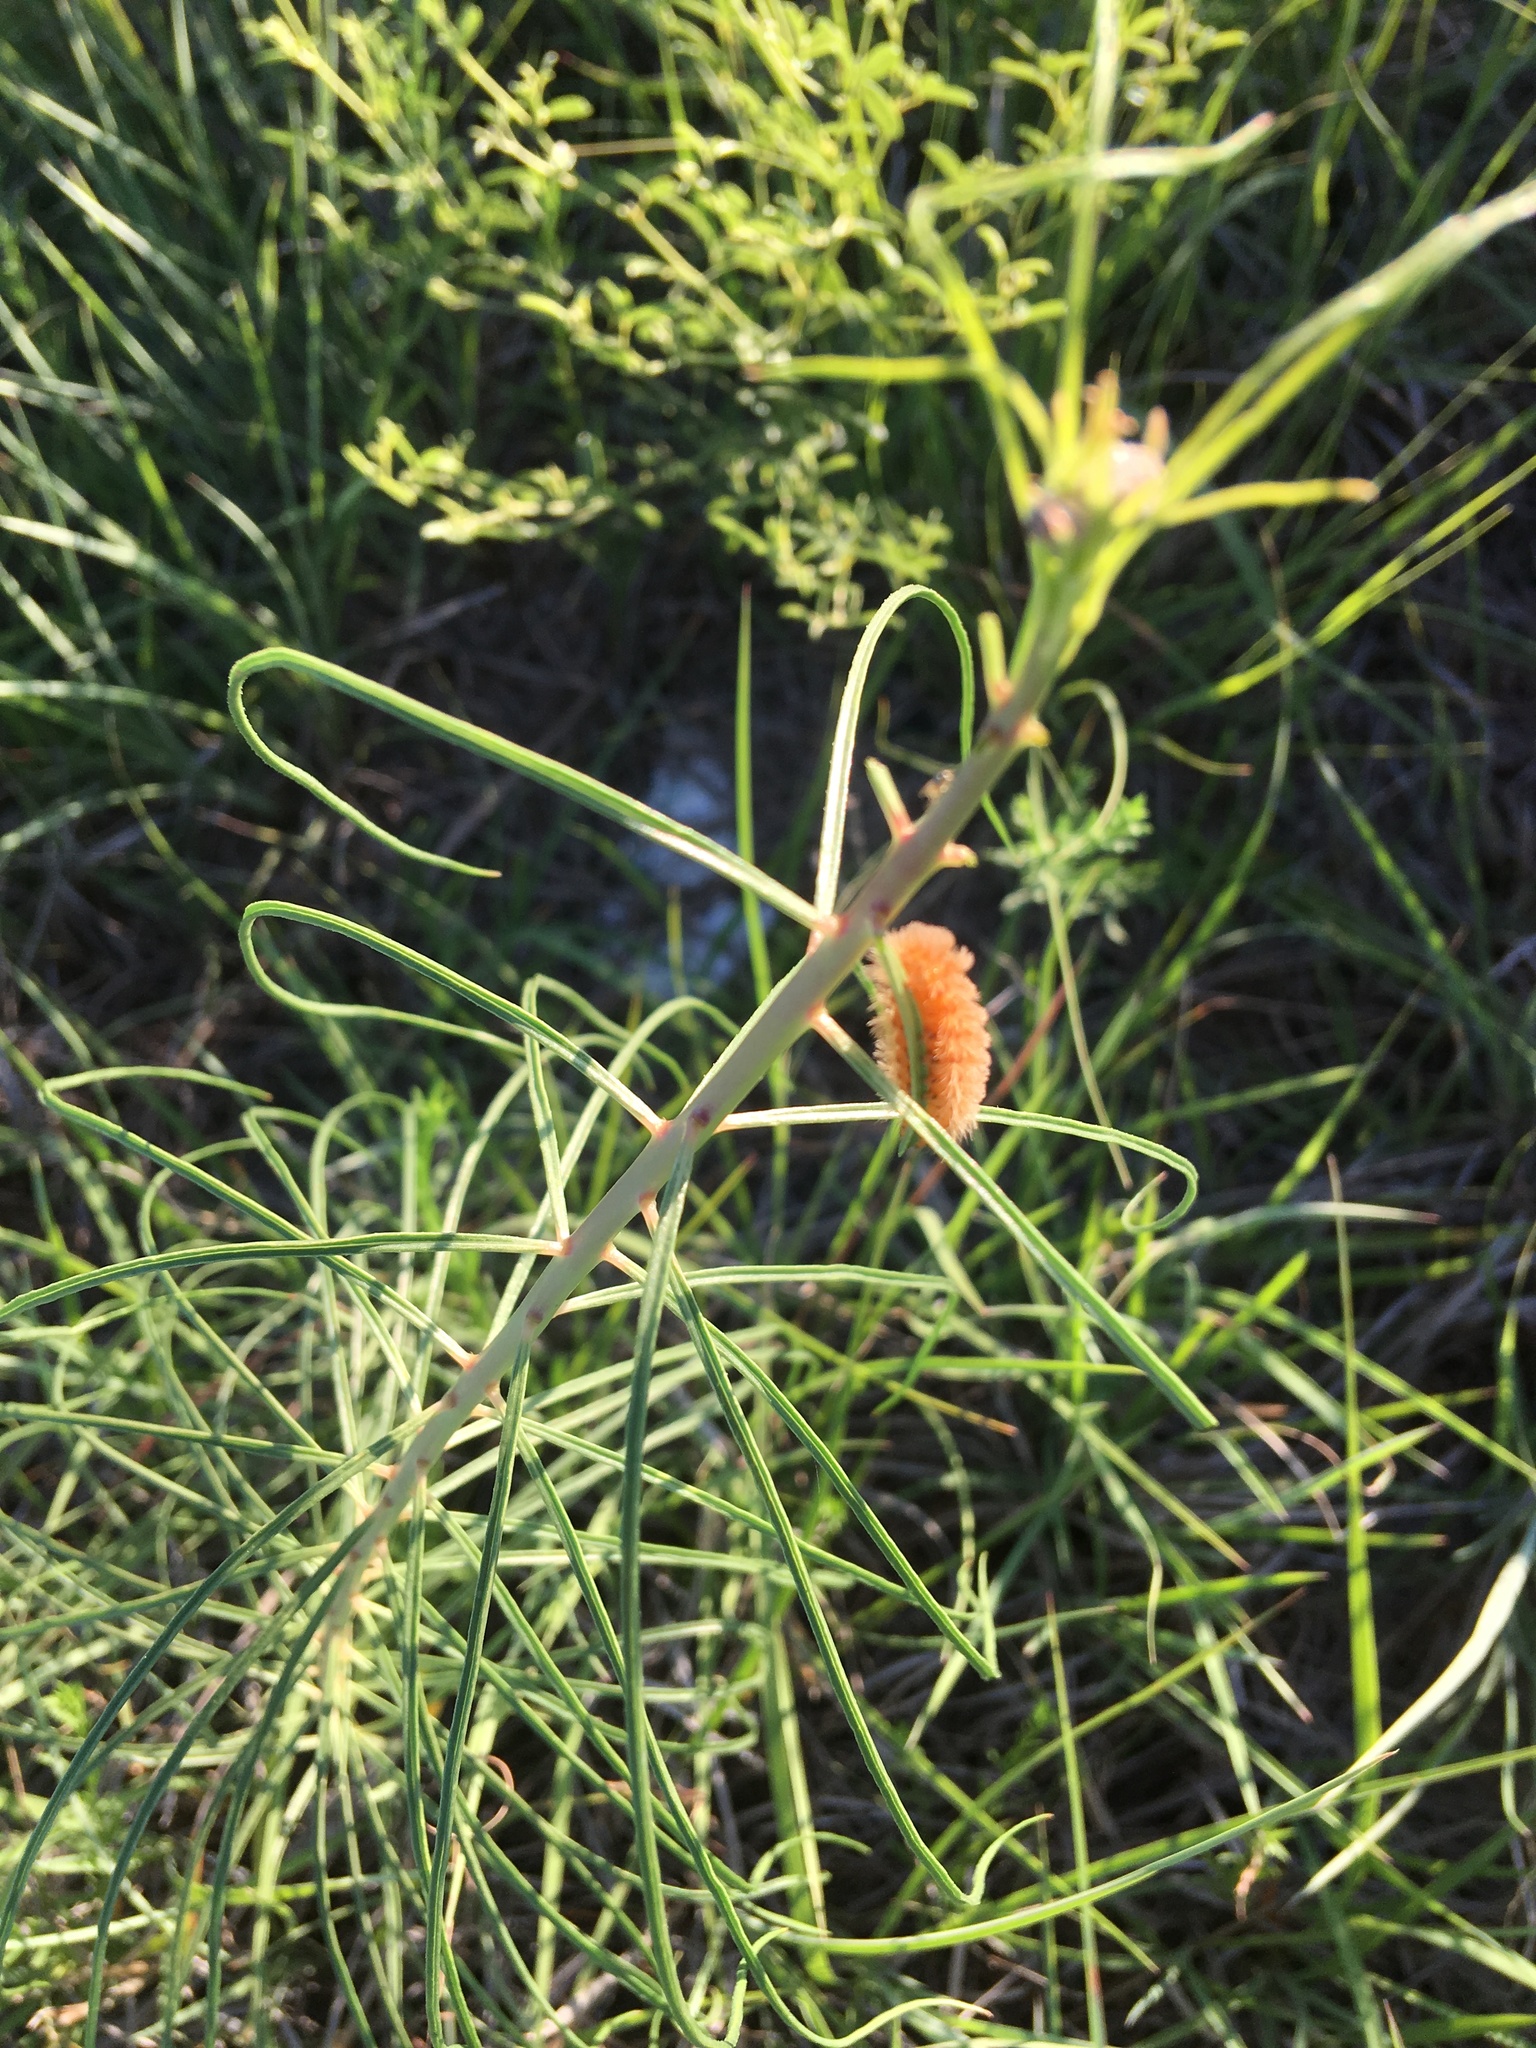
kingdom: Plantae
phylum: Tracheophyta
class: Magnoliopsida
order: Gentianales
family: Apocynaceae
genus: Asclepias
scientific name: Asclepias engelmanniana
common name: Engelmann's milkweed
